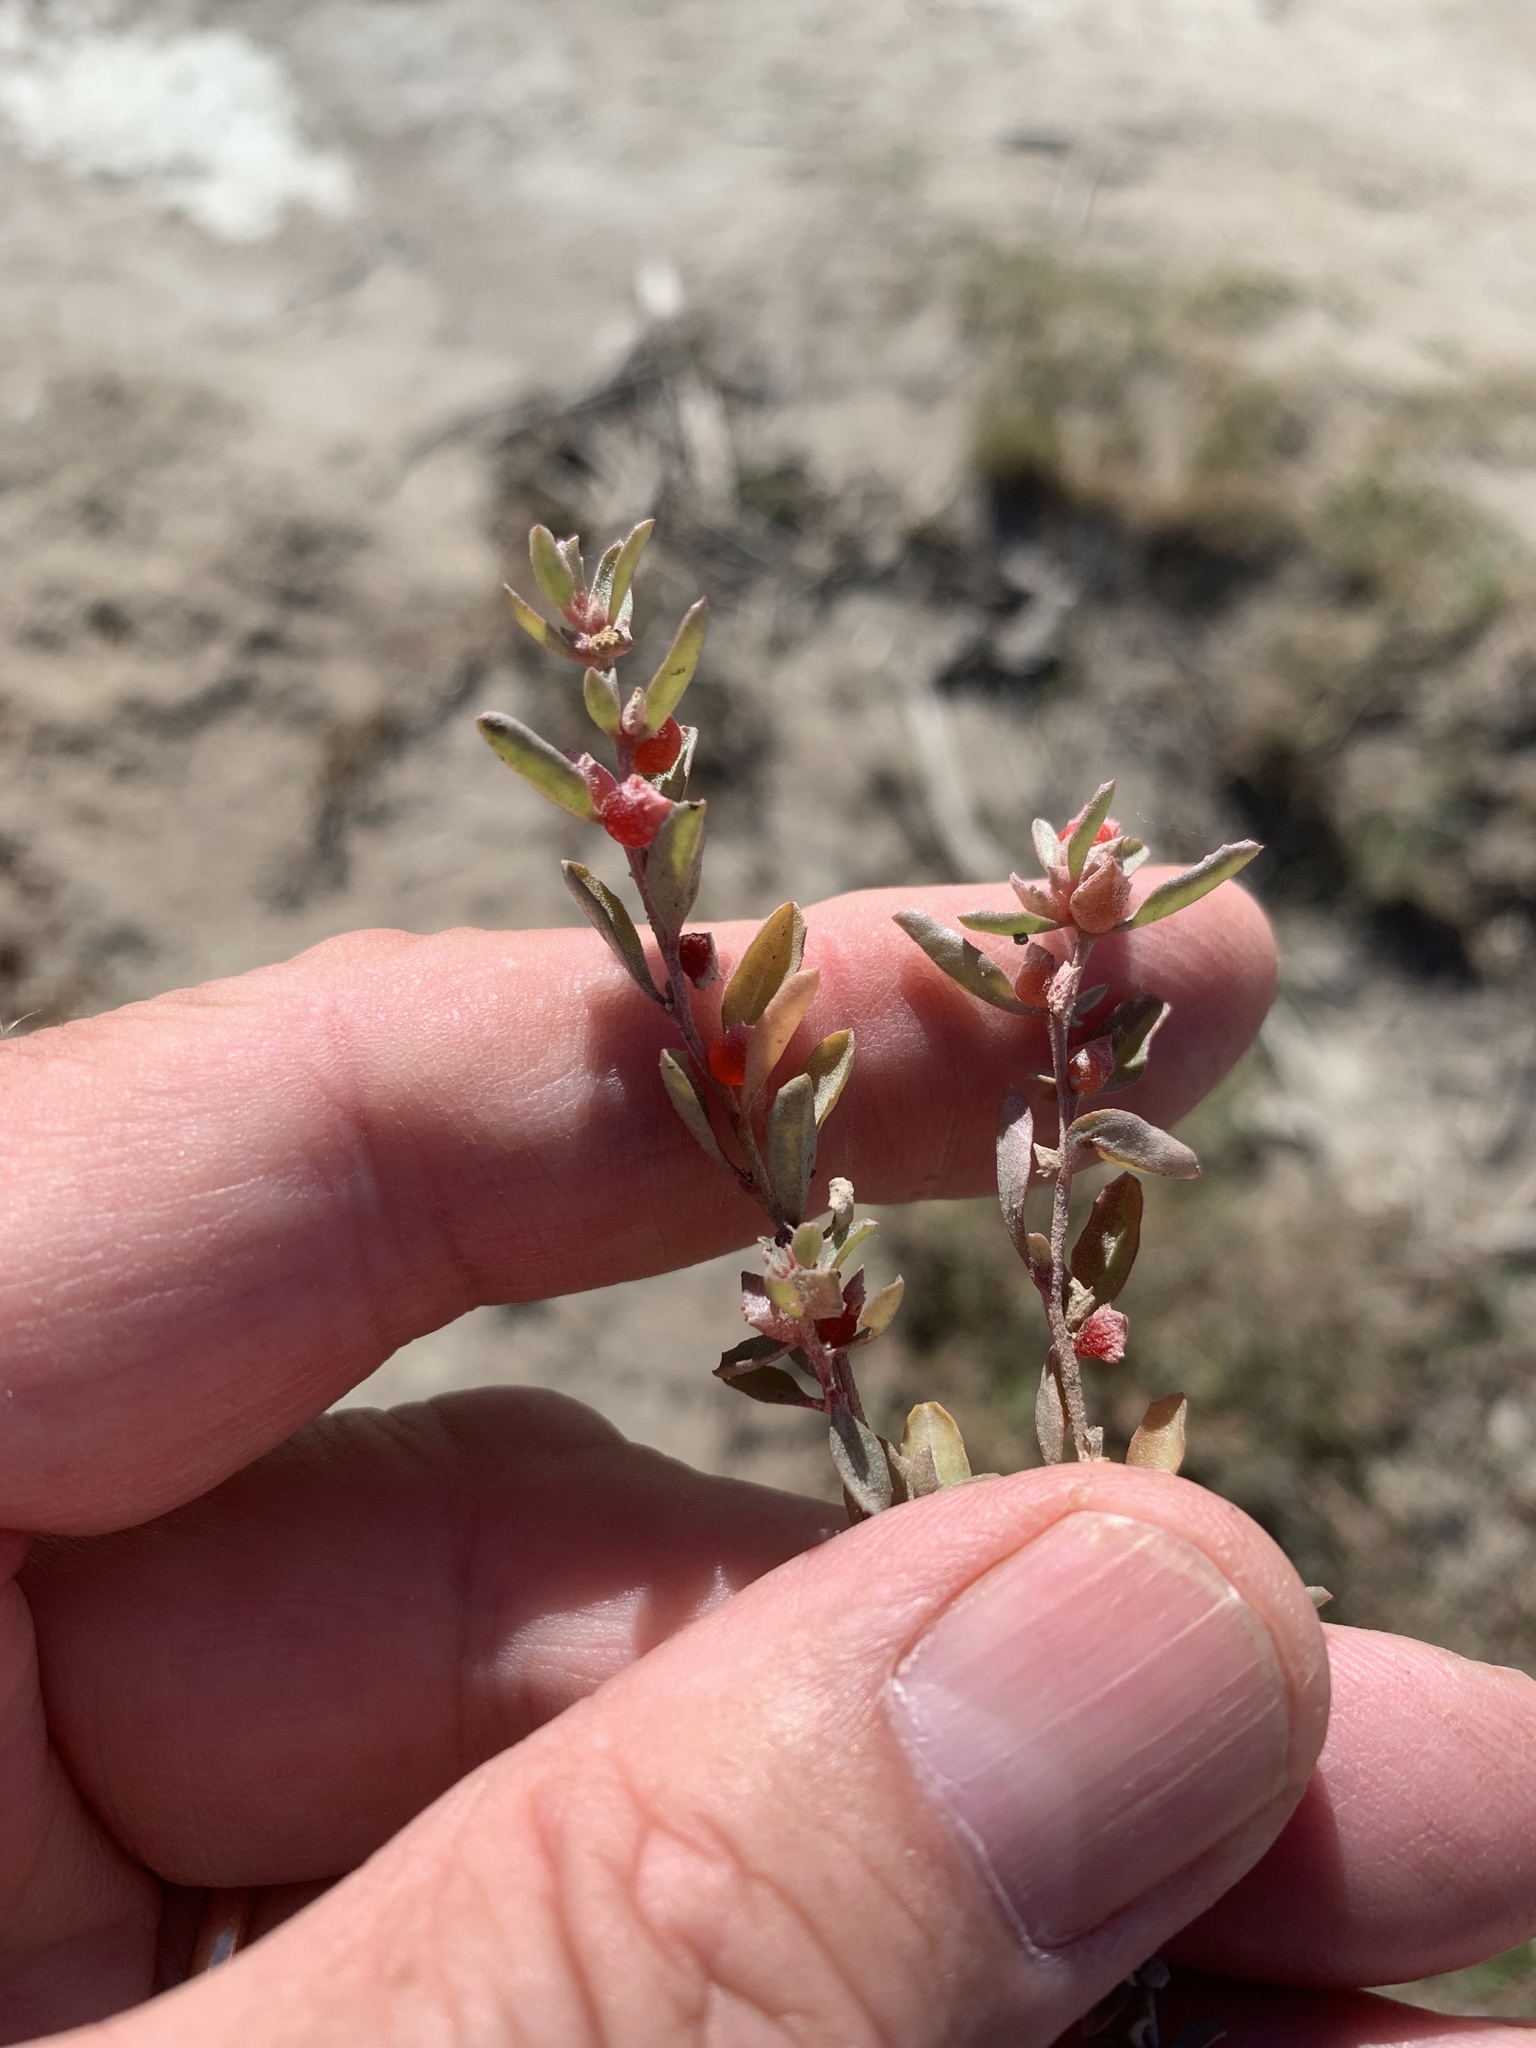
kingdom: Plantae
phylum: Tracheophyta
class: Magnoliopsida
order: Caryophyllales
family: Amaranthaceae
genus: Atriplex
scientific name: Atriplex semibaccata
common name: Australian saltbush
